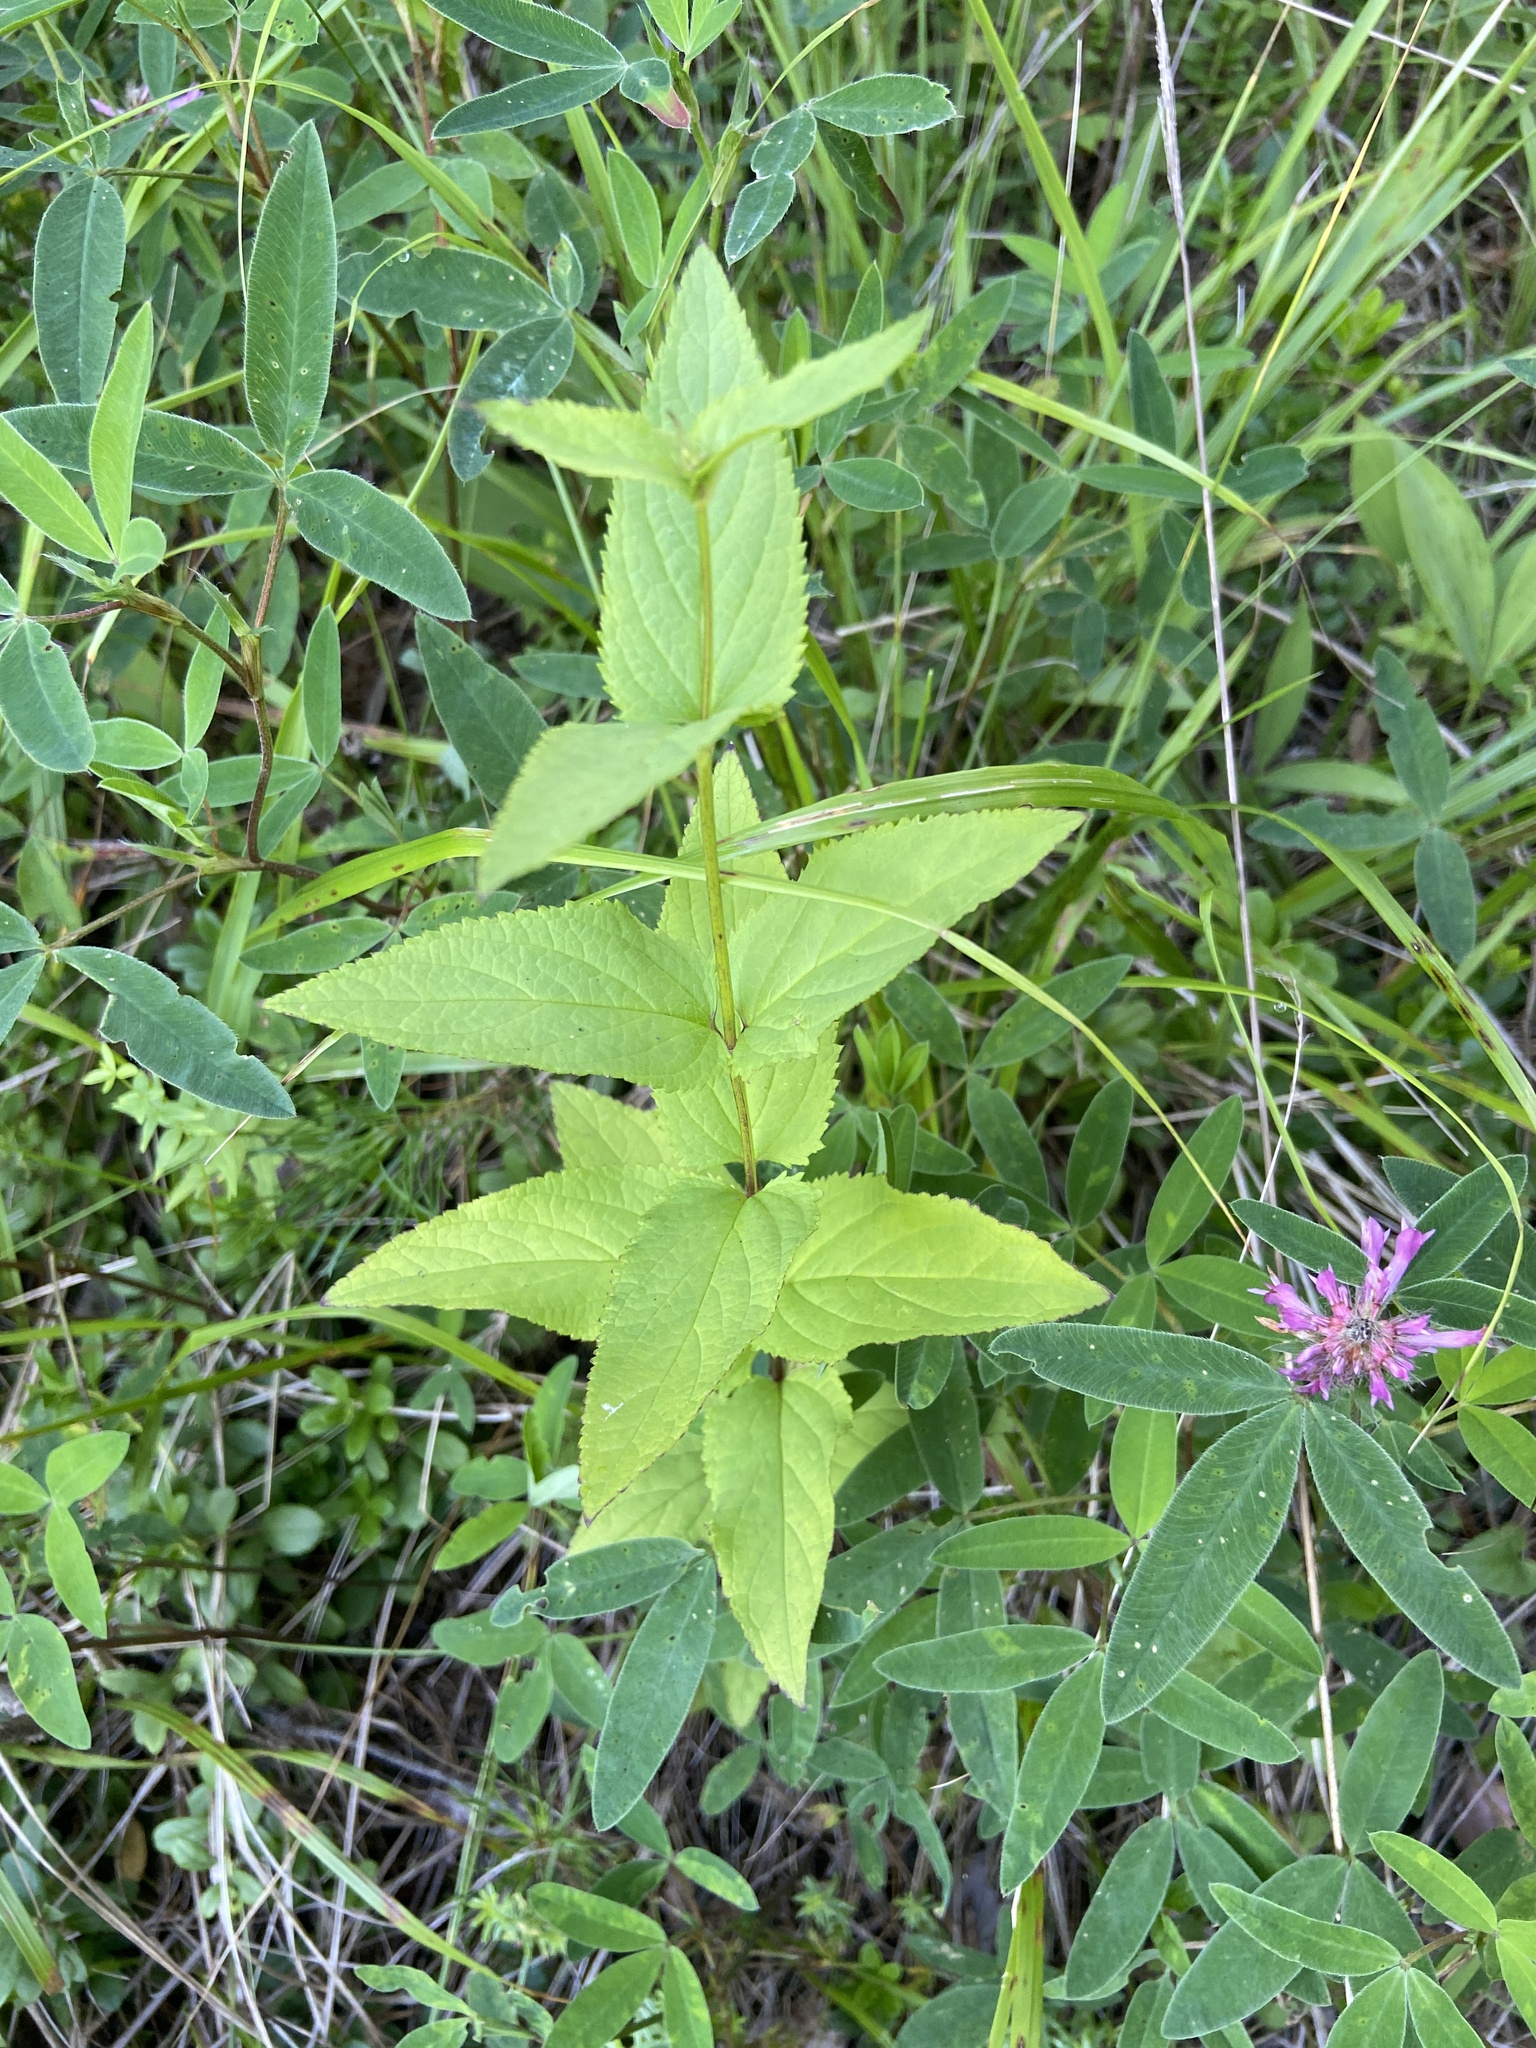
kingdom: Plantae
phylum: Tracheophyta
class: Magnoliopsida
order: Lamiales
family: Scrophulariaceae
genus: Scrophularia
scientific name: Scrophularia nodosa
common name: Common figwort
